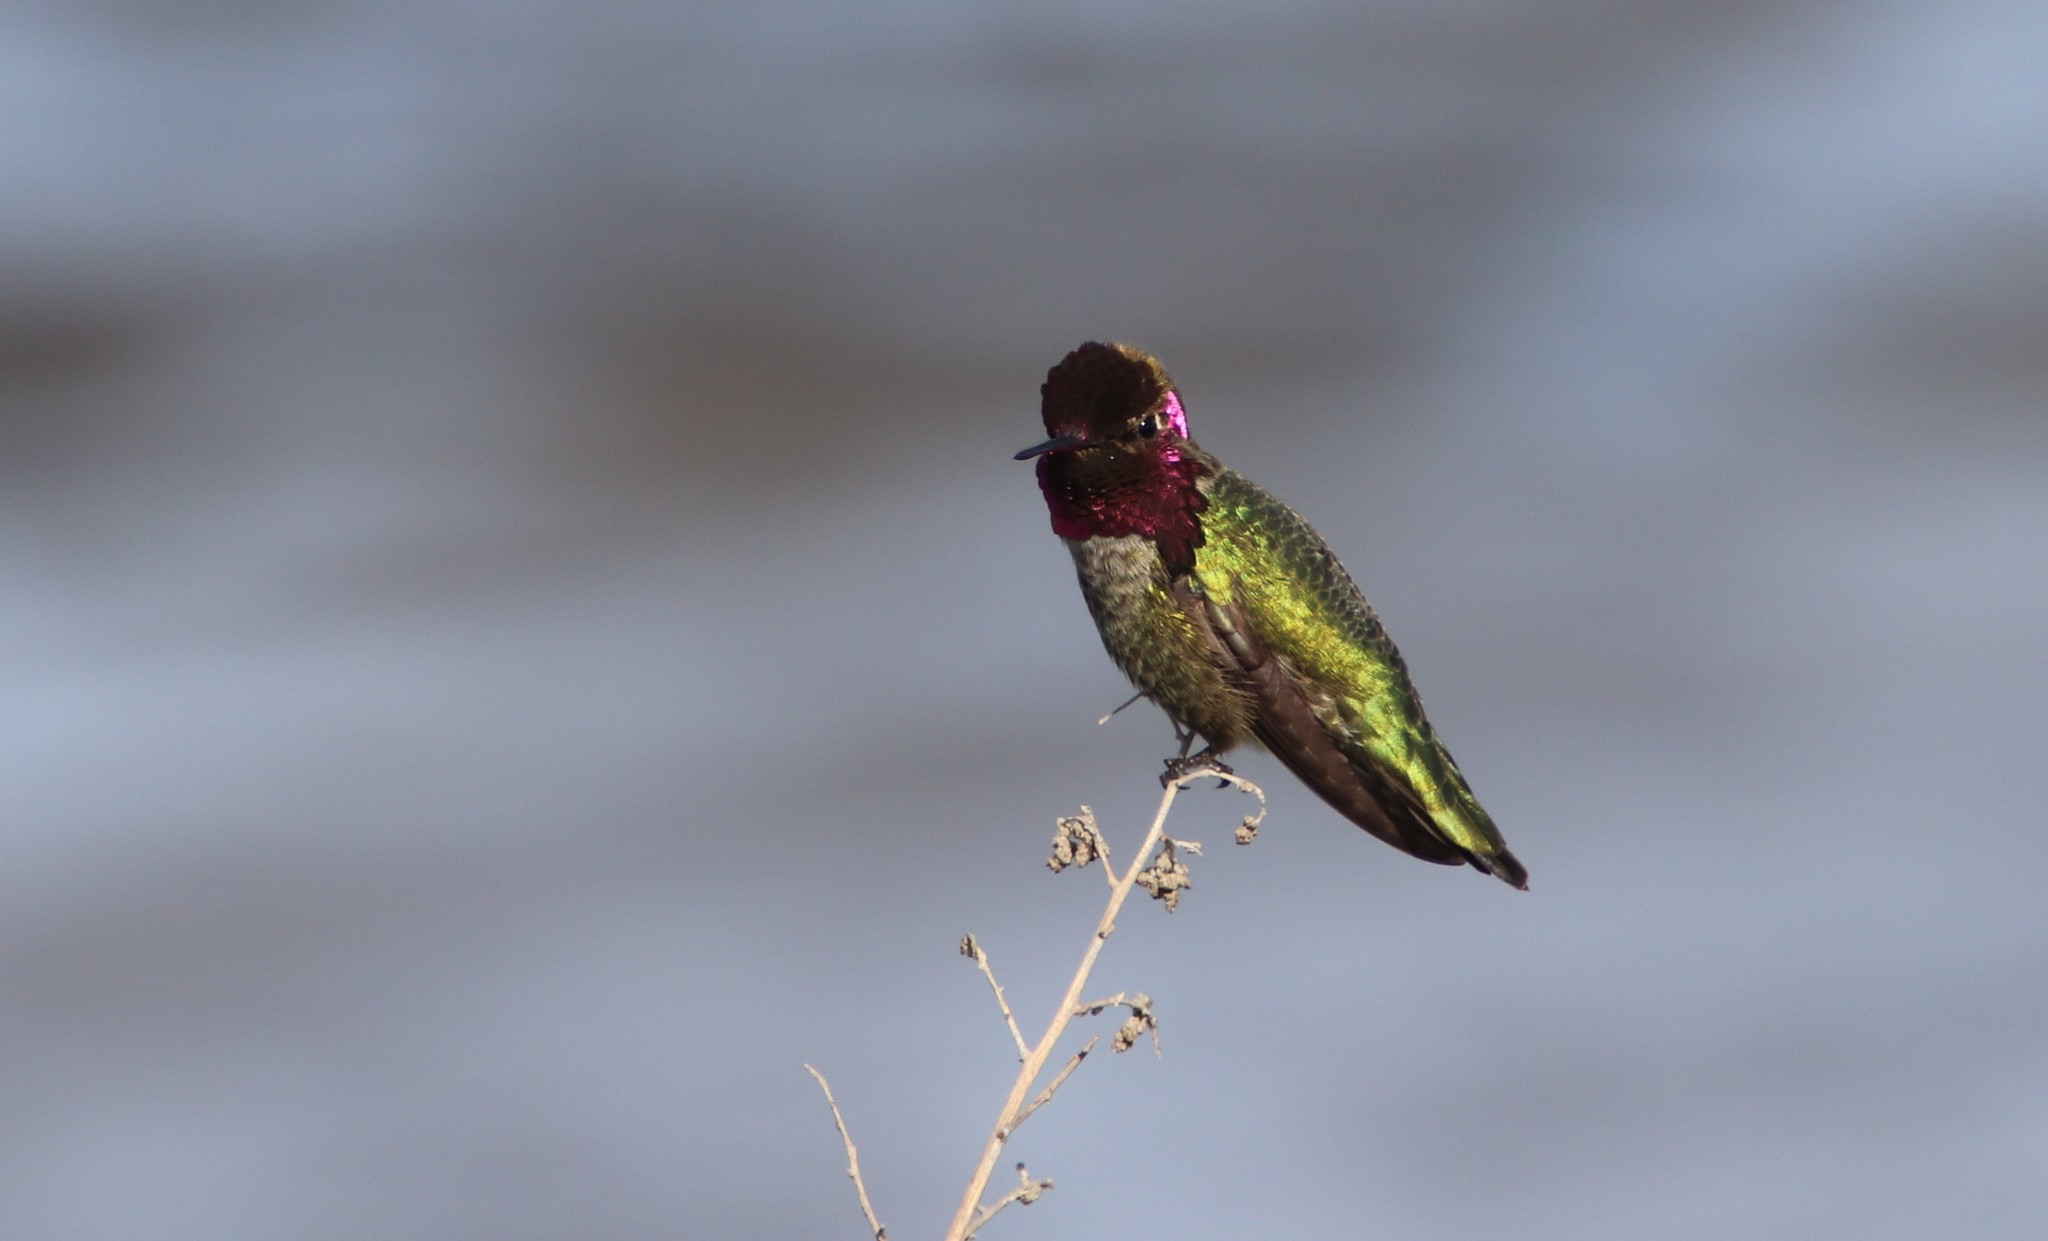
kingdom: Animalia
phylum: Chordata
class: Aves
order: Apodiformes
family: Trochilidae
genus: Calypte
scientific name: Calypte anna
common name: Anna's hummingbird
